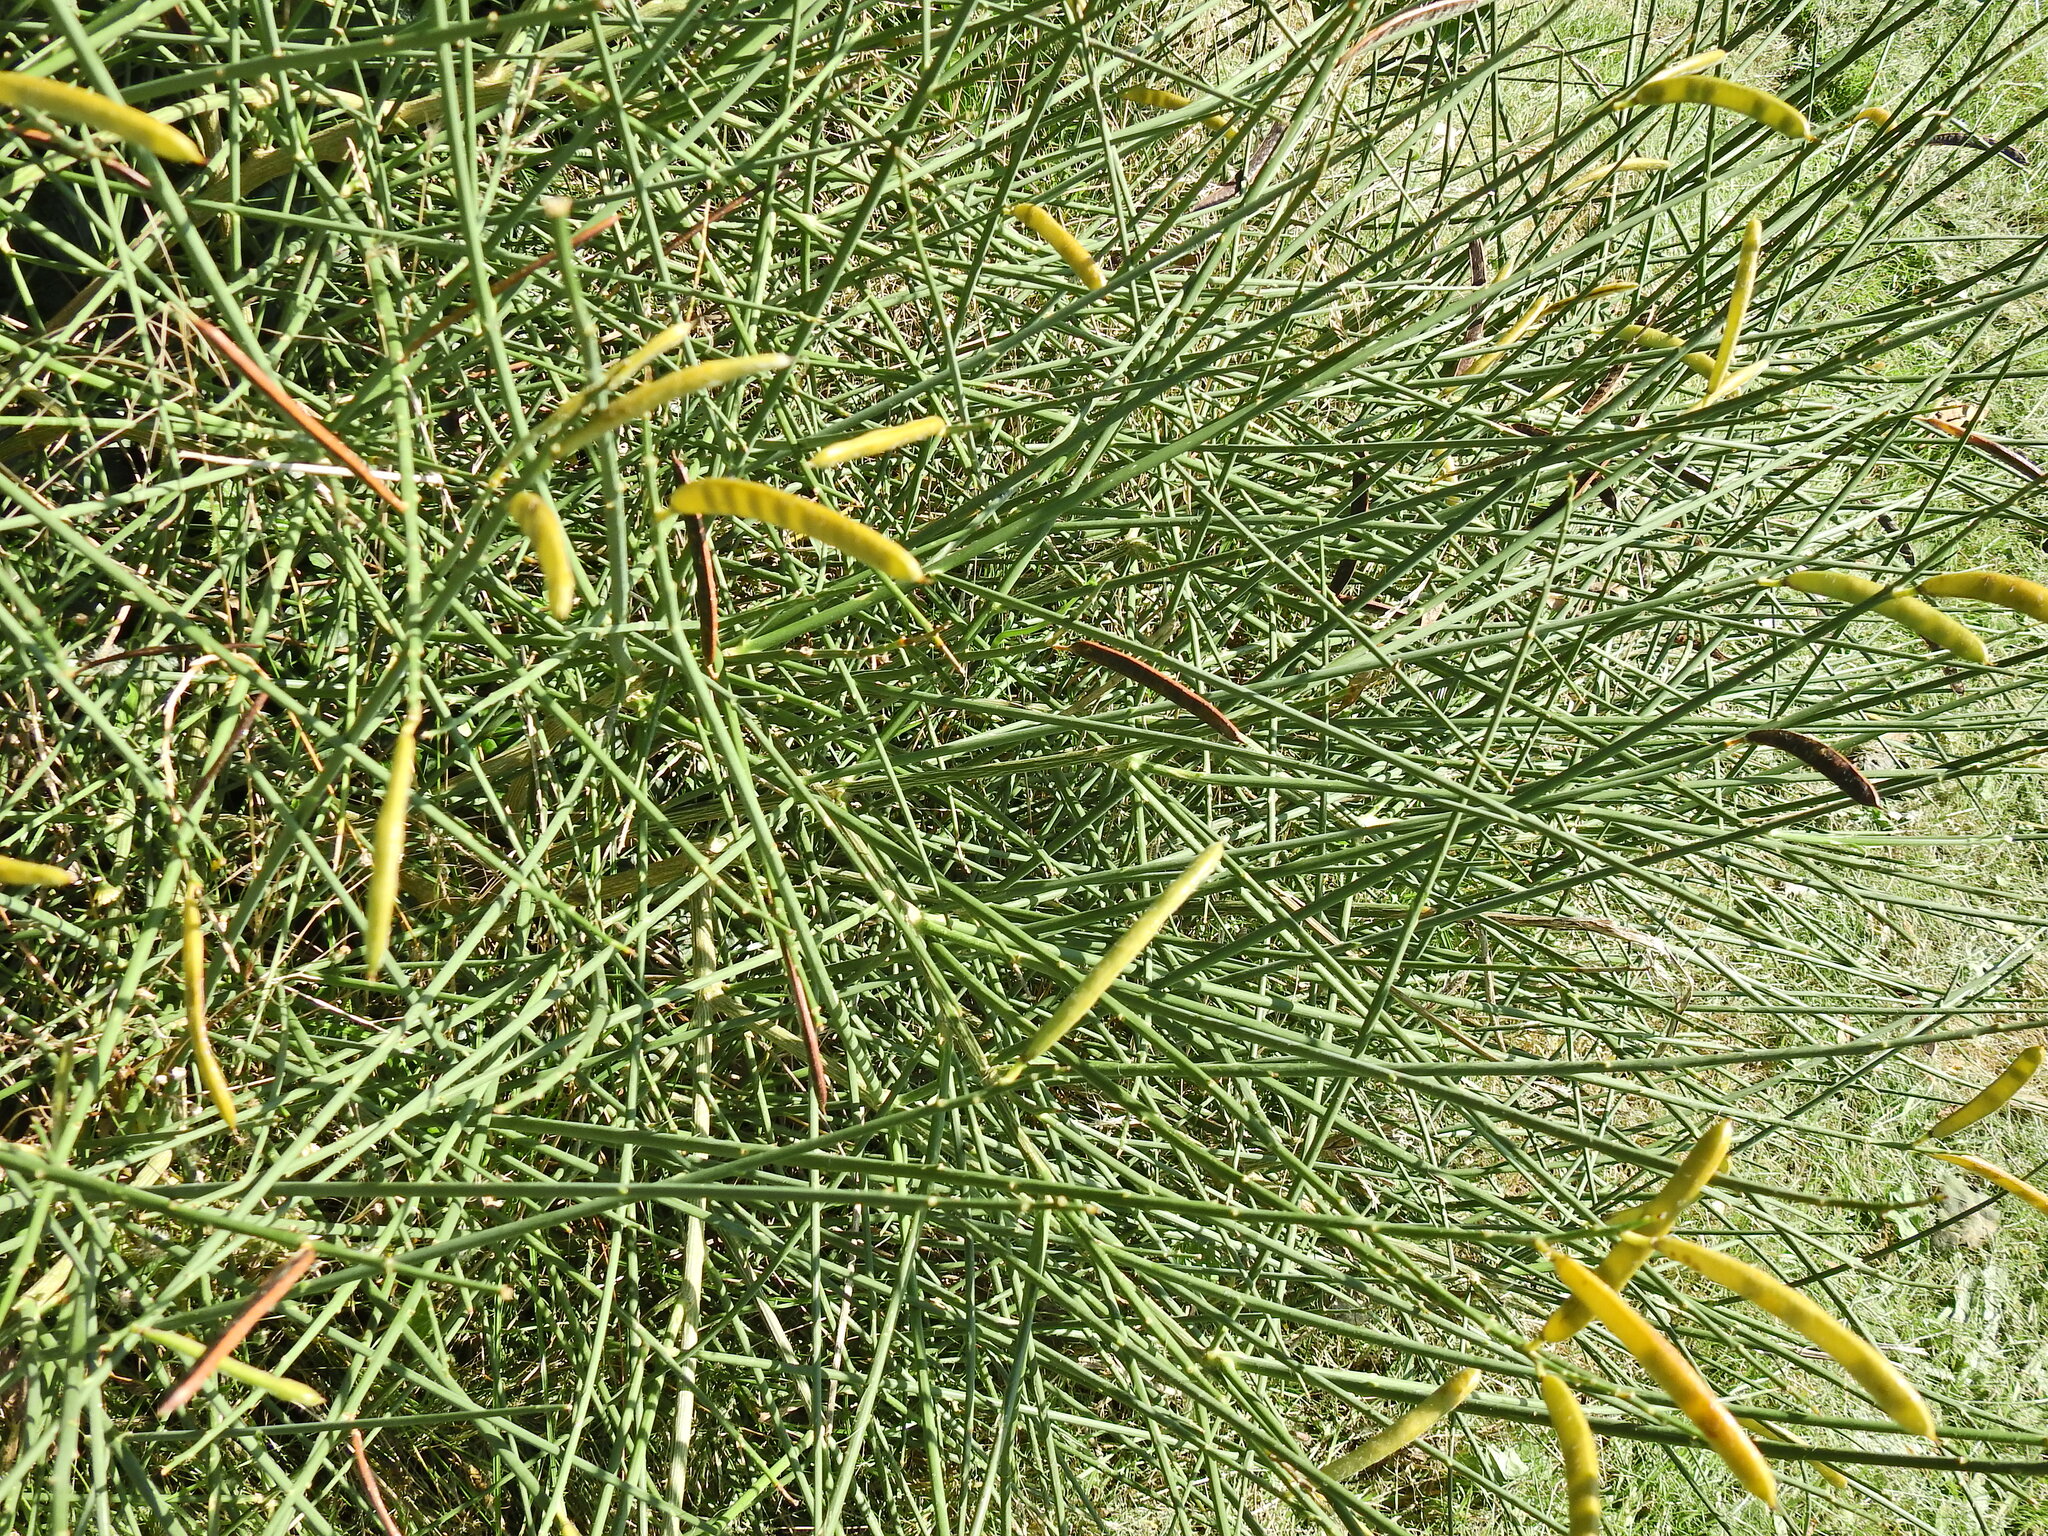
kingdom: Plantae
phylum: Tracheophyta
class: Magnoliopsida
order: Fabales
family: Fabaceae
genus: Spartium
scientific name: Spartium junceum
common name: Spanish broom
